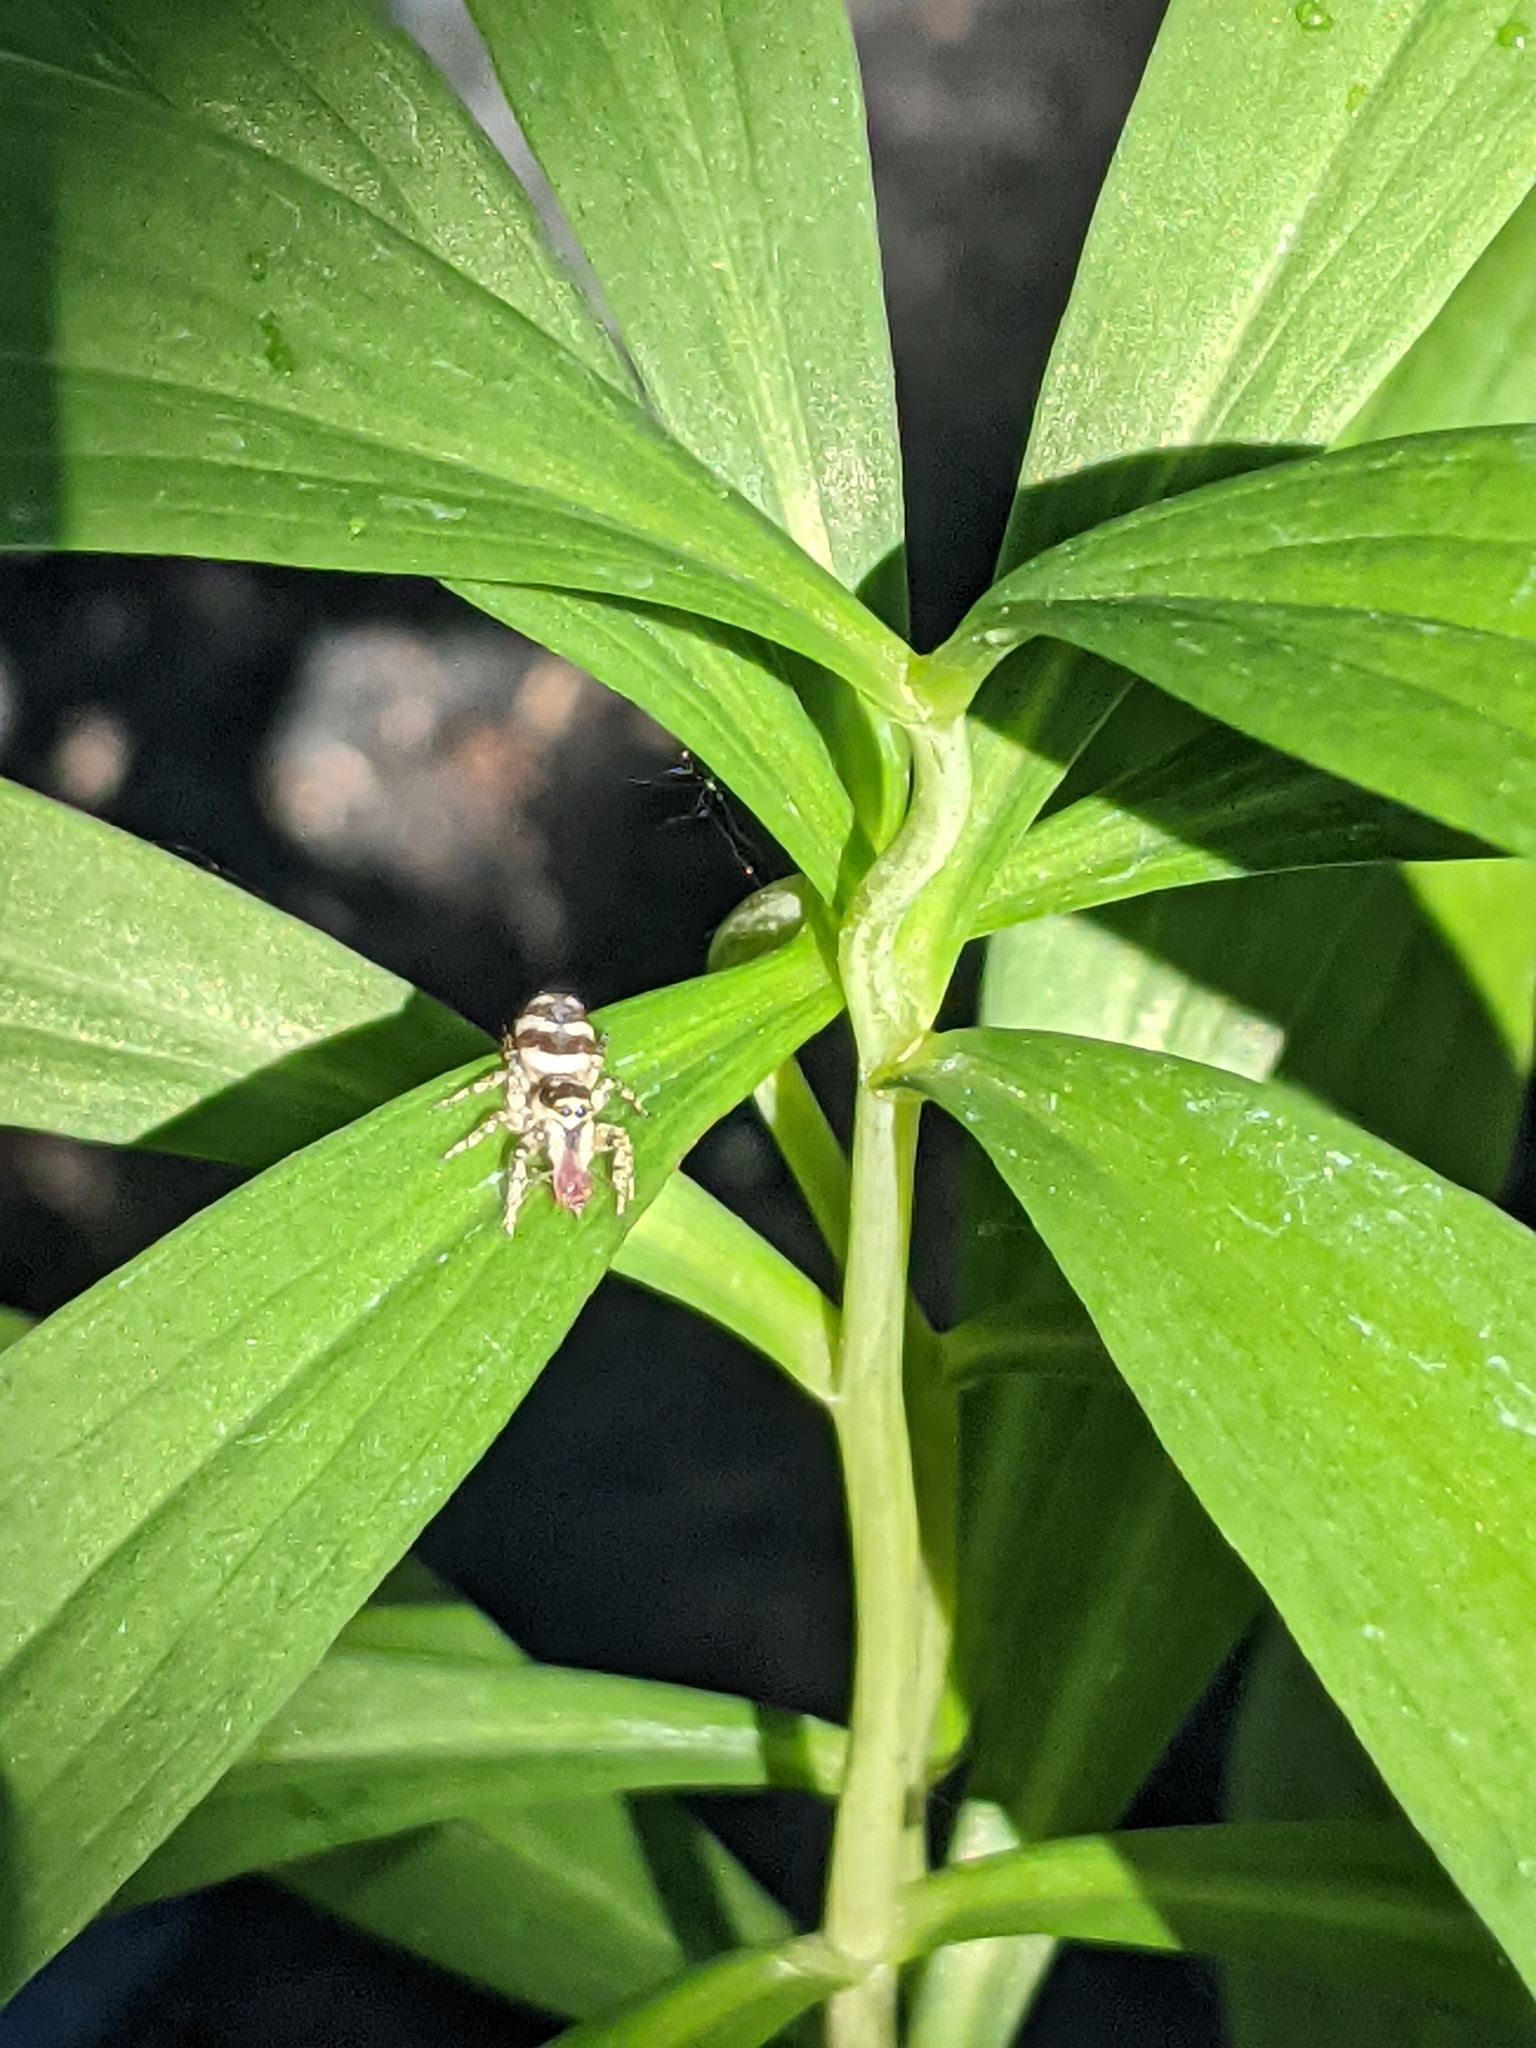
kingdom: Animalia
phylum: Arthropoda
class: Arachnida
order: Araneae
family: Salticidae
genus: Salticus
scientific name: Salticus scenicus
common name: Zebra jumper
